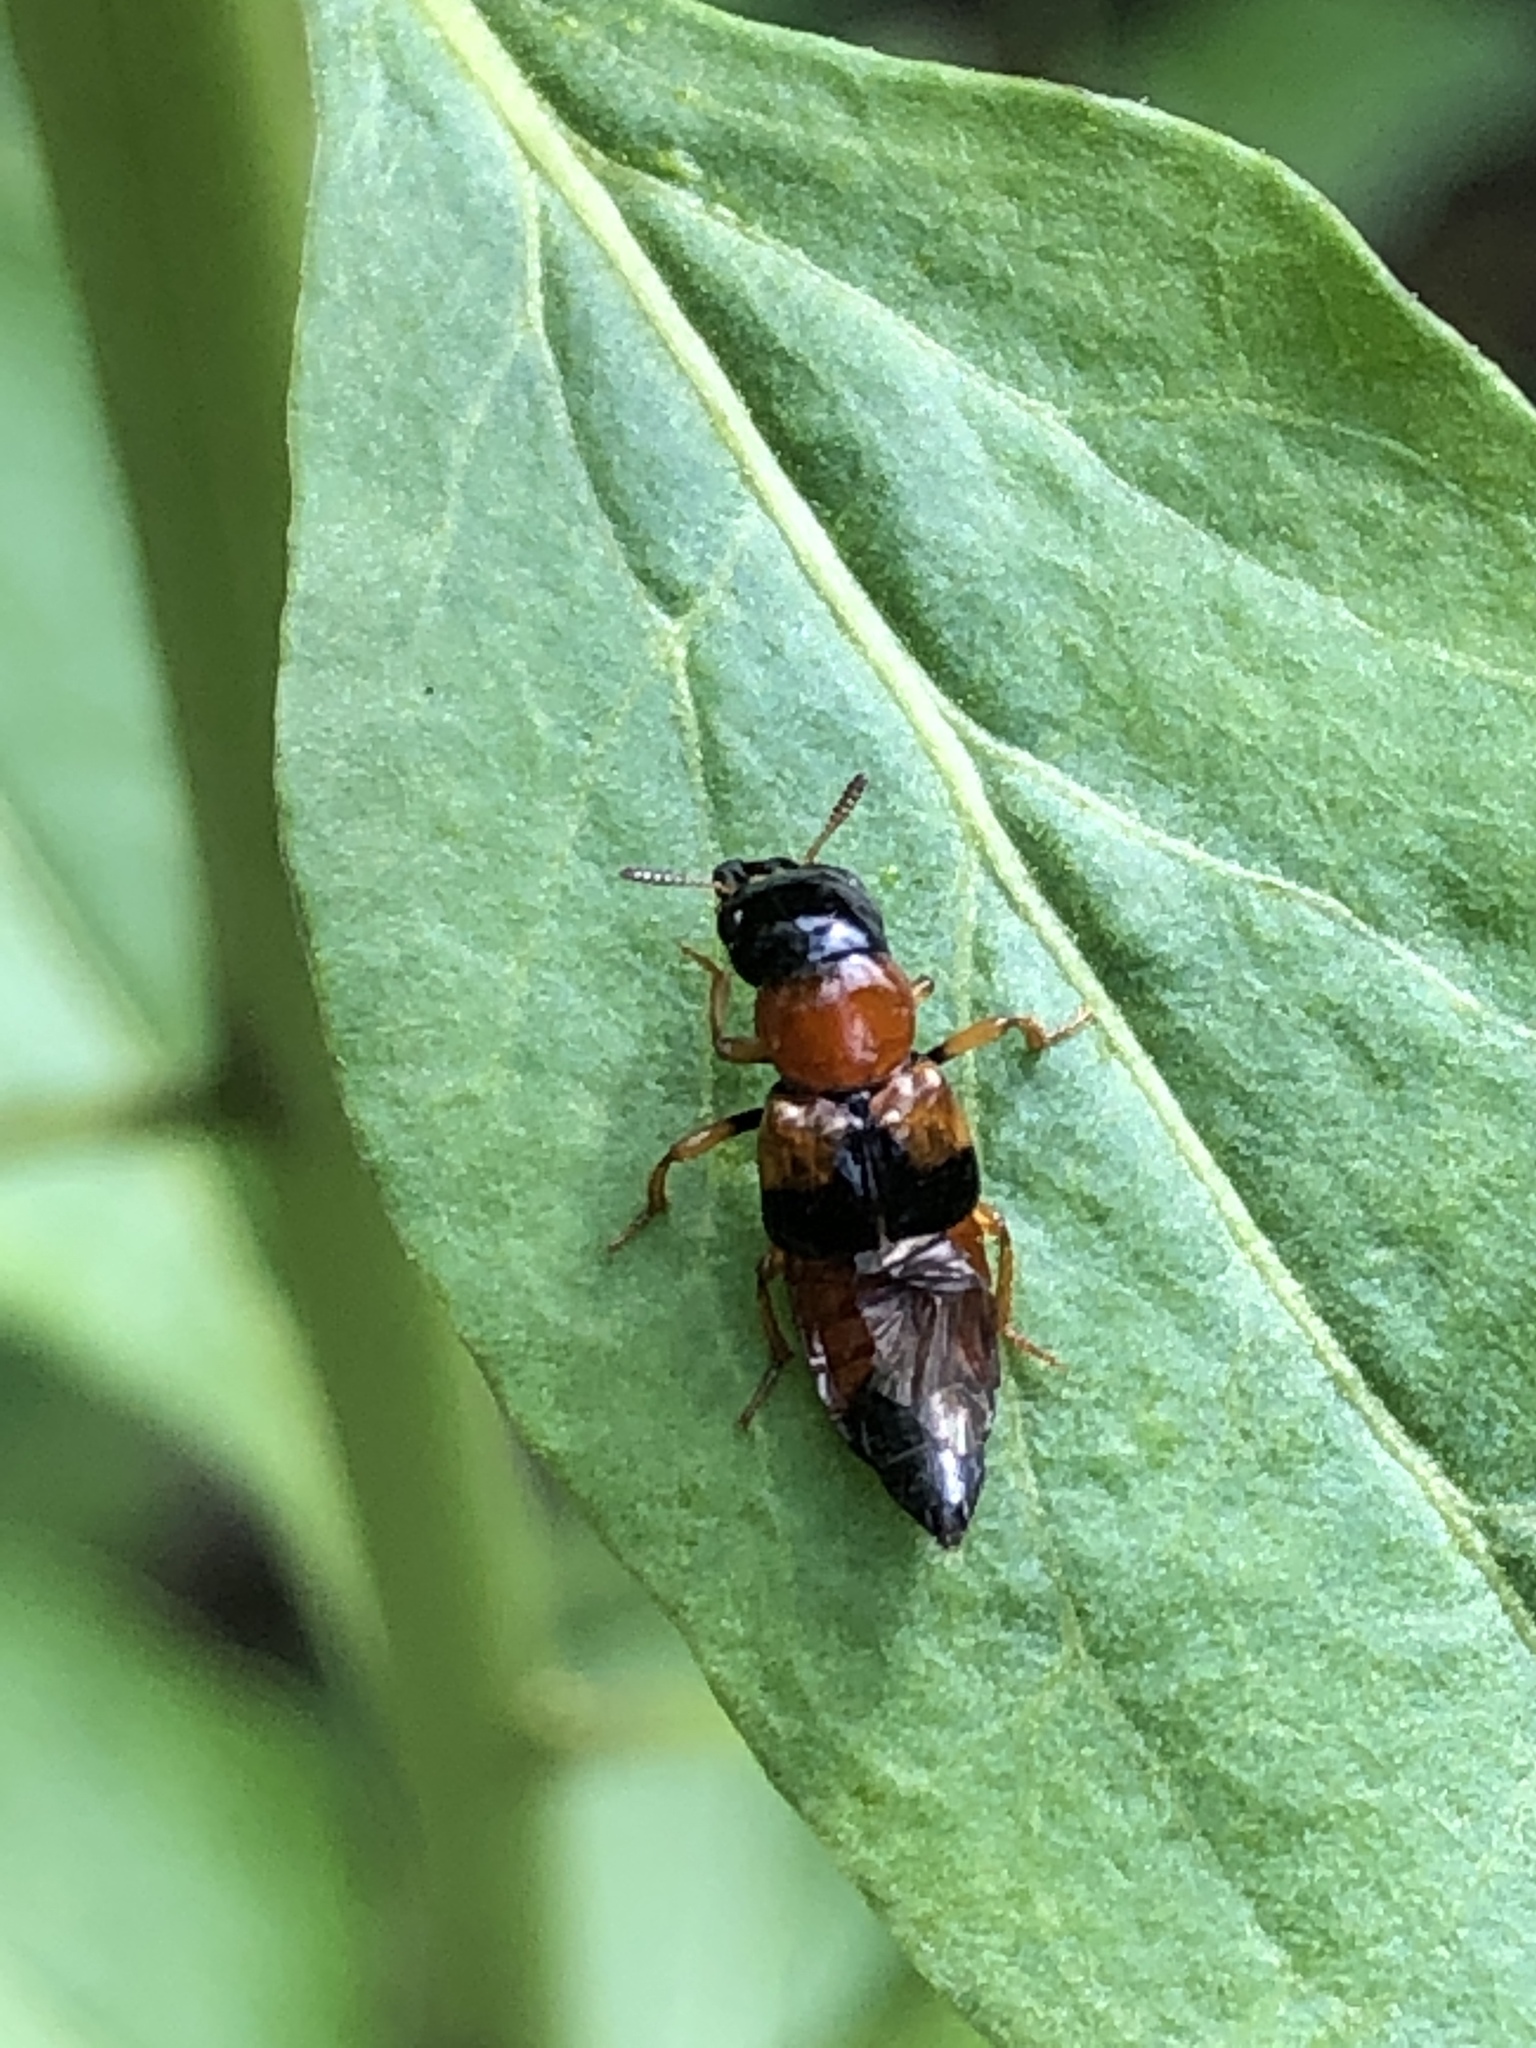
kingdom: Animalia
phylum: Arthropoda
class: Insecta
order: Coleoptera
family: Staphylinidae
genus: Oxyporus
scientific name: Oxyporus rufus
